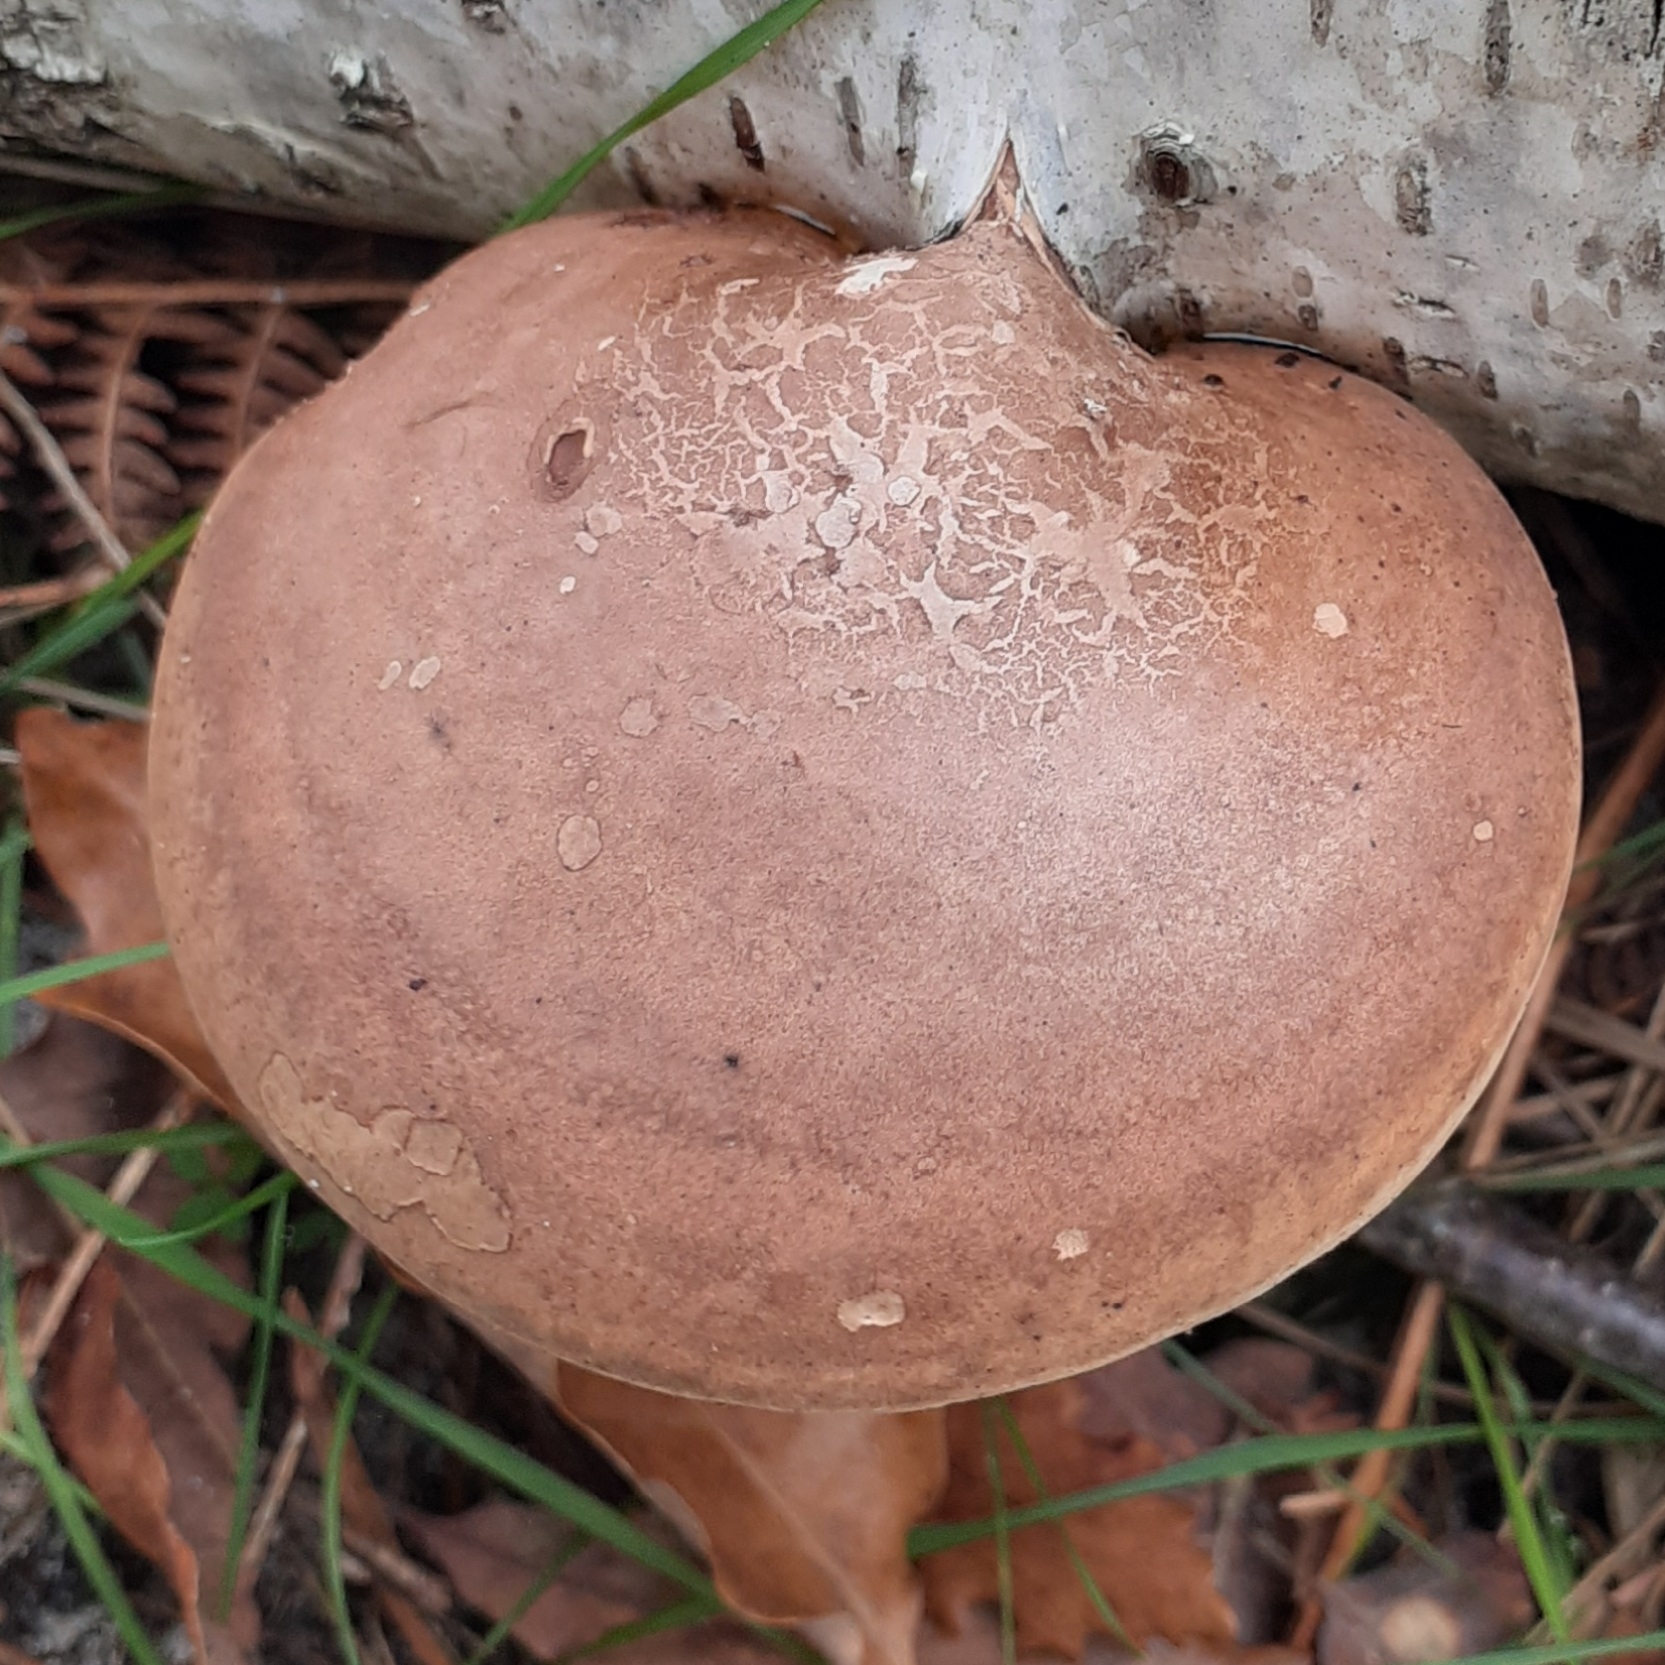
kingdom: Fungi
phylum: Basidiomycota
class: Agaricomycetes
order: Polyporales
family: Fomitopsidaceae
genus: Fomitopsis
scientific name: Fomitopsis betulina
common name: Birch polypore
